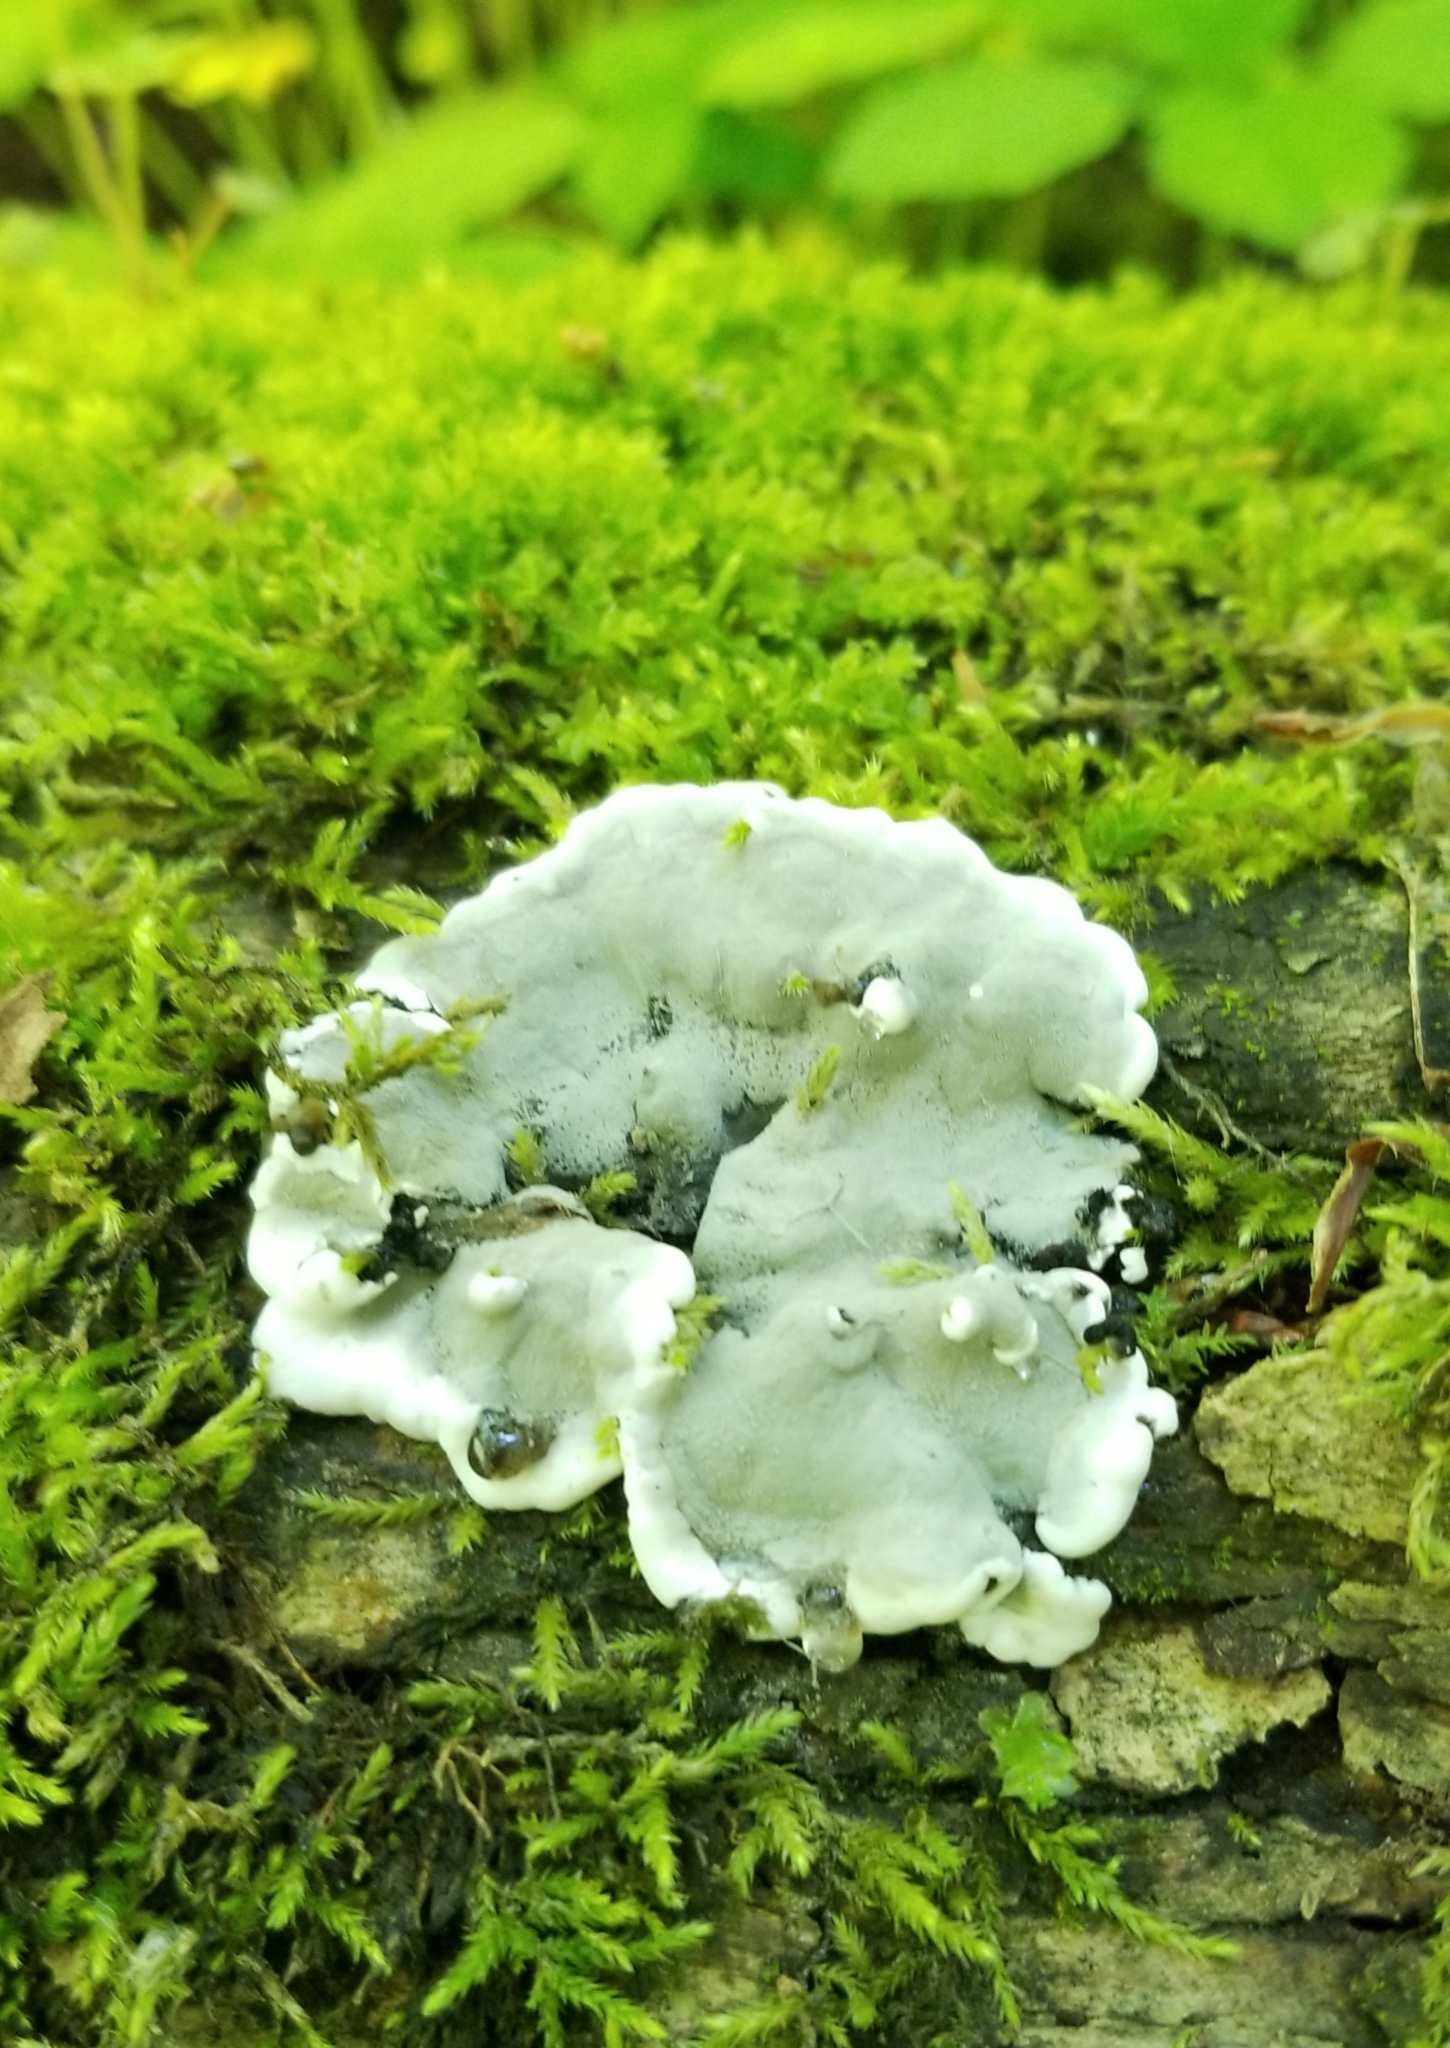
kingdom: Fungi
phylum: Ascomycota
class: Sordariomycetes
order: Xylariales
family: Xylariaceae
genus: Kretzschmaria
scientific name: Kretzschmaria deusta
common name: Brittle cinder
